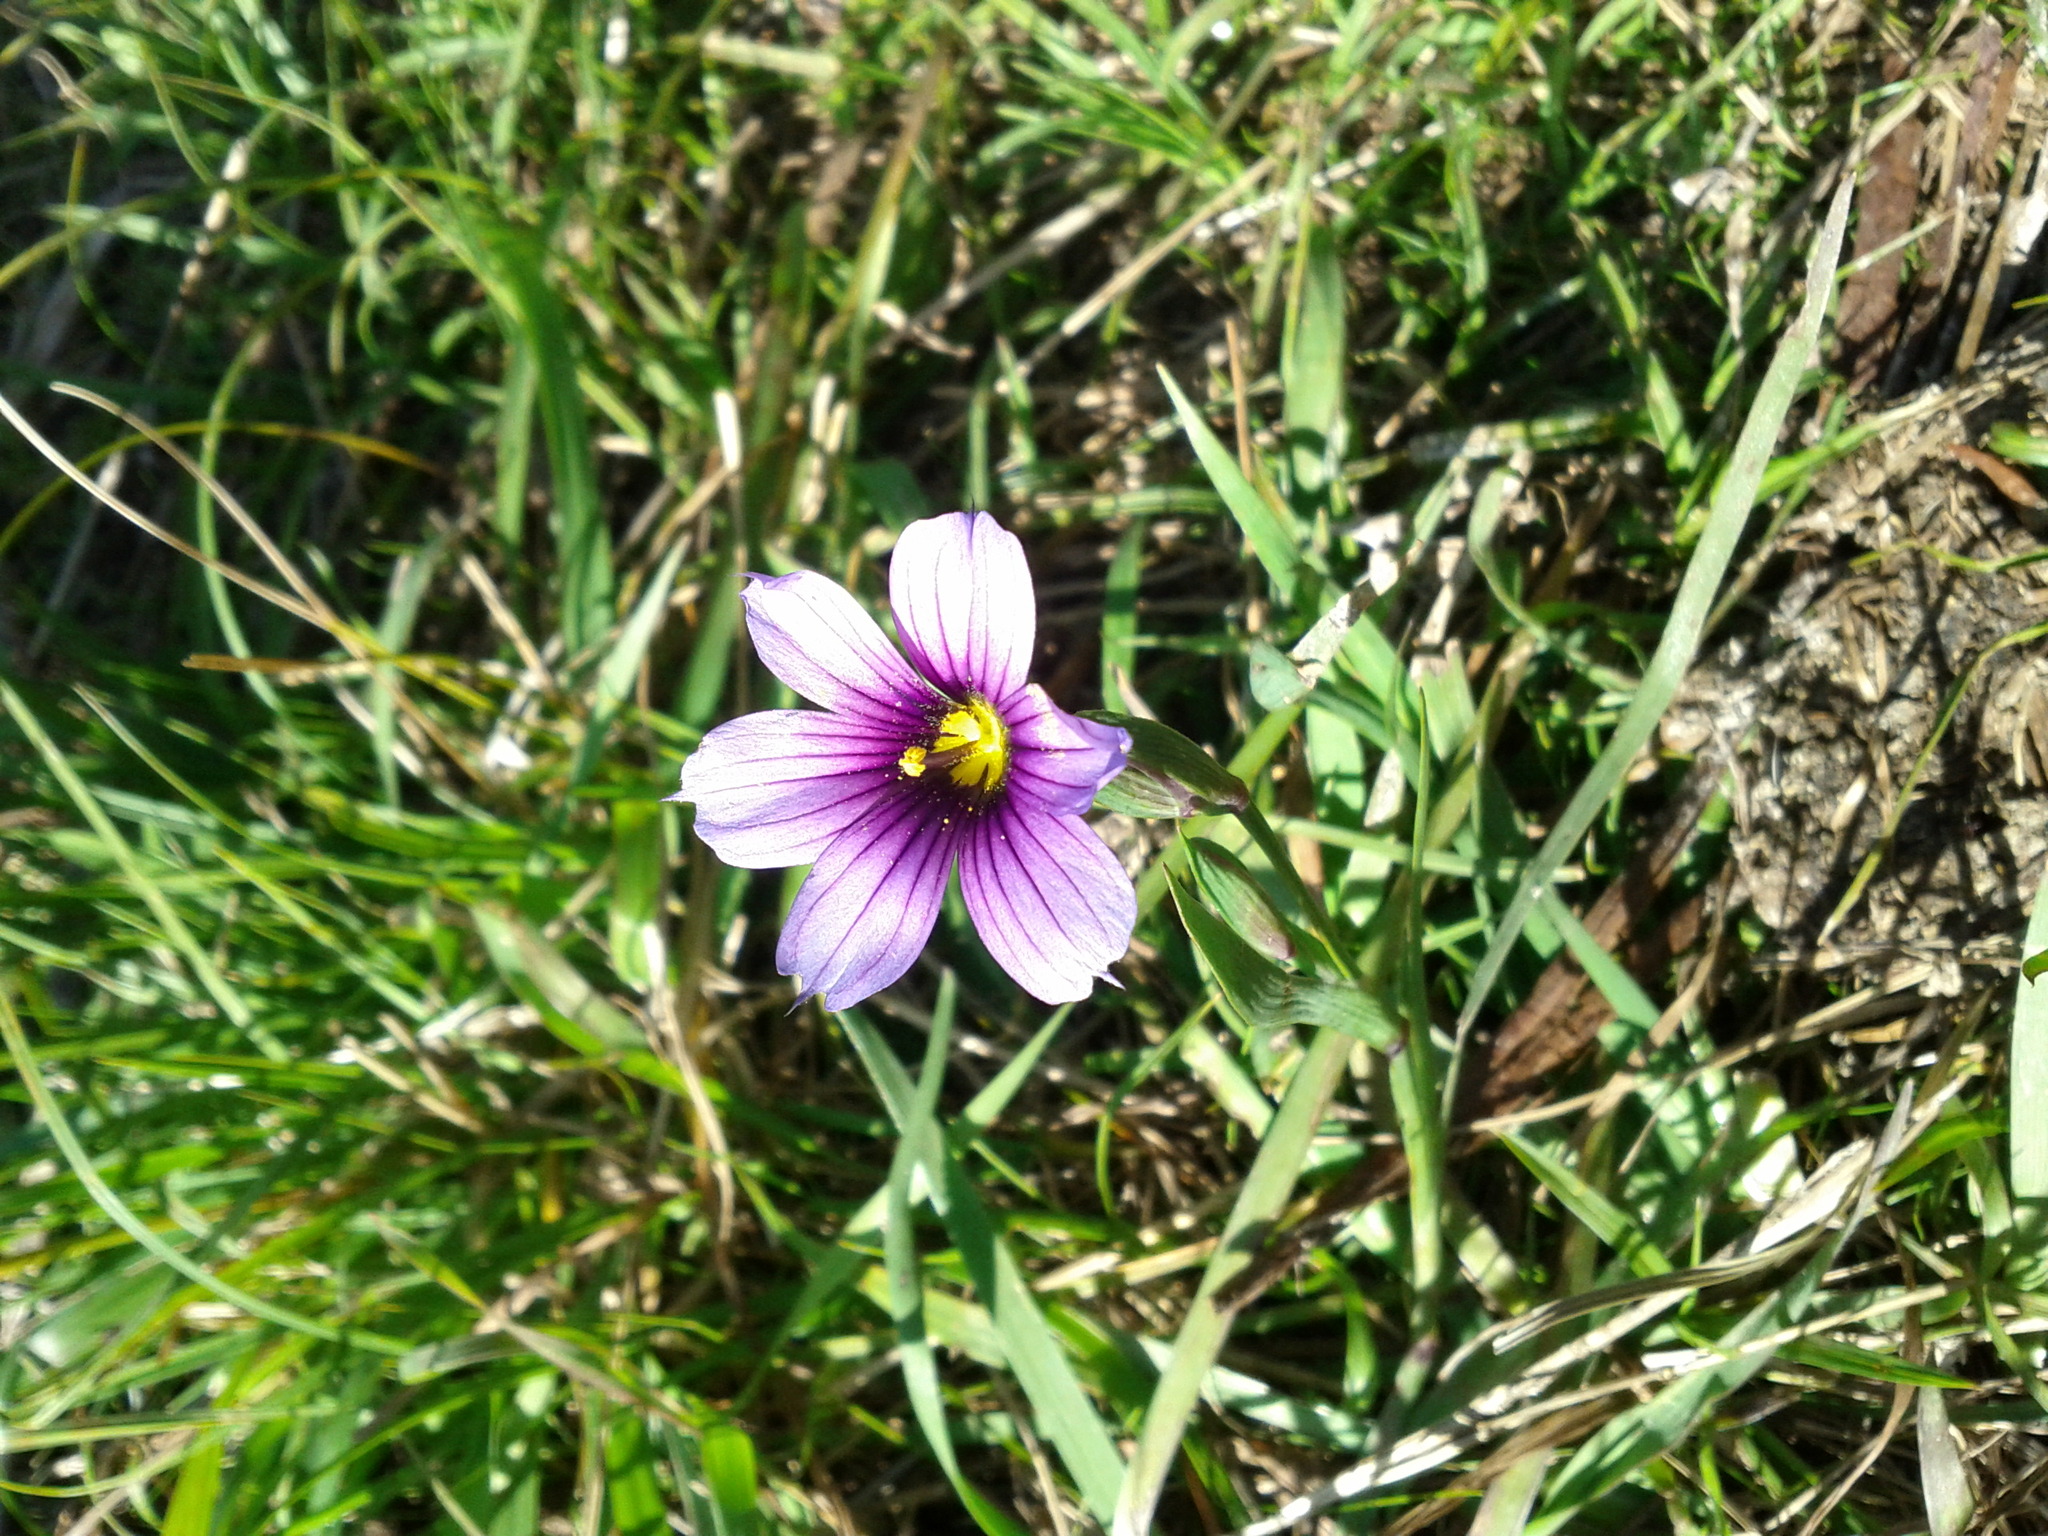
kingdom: Plantae
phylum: Tracheophyta
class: Liliopsida
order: Asparagales
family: Iridaceae
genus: Sisyrinchium
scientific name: Sisyrinchium bellum
